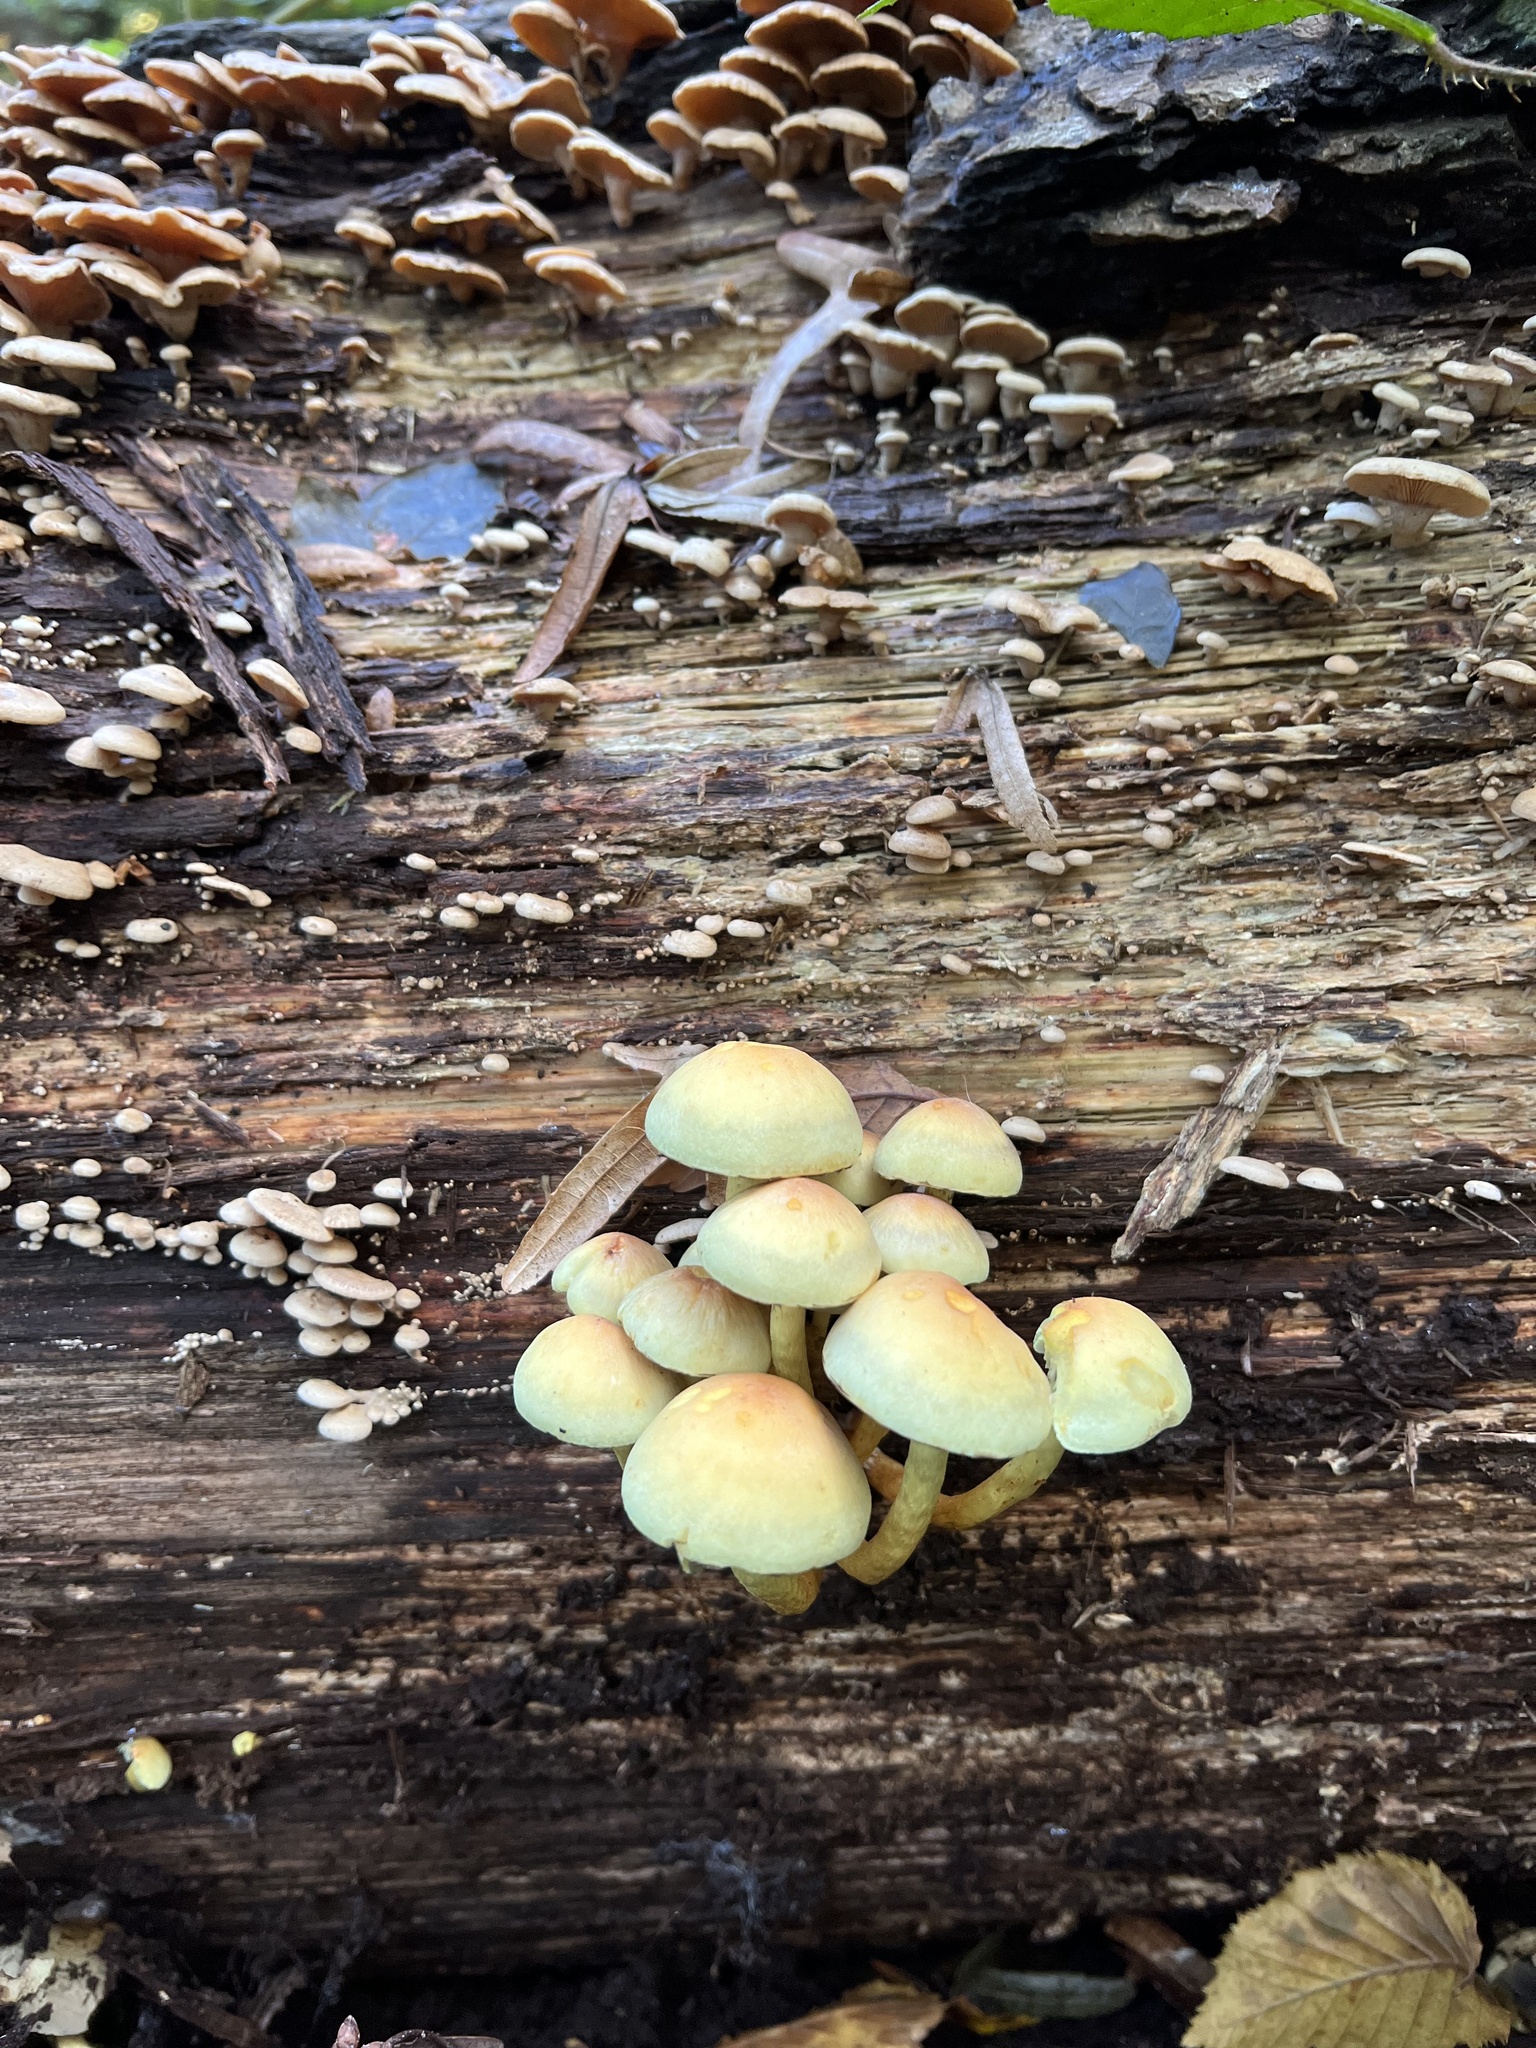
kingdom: Fungi
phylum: Basidiomycota
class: Agaricomycetes
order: Agaricales
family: Strophariaceae
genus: Hypholoma
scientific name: Hypholoma fasciculare
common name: Sulphur tuft
